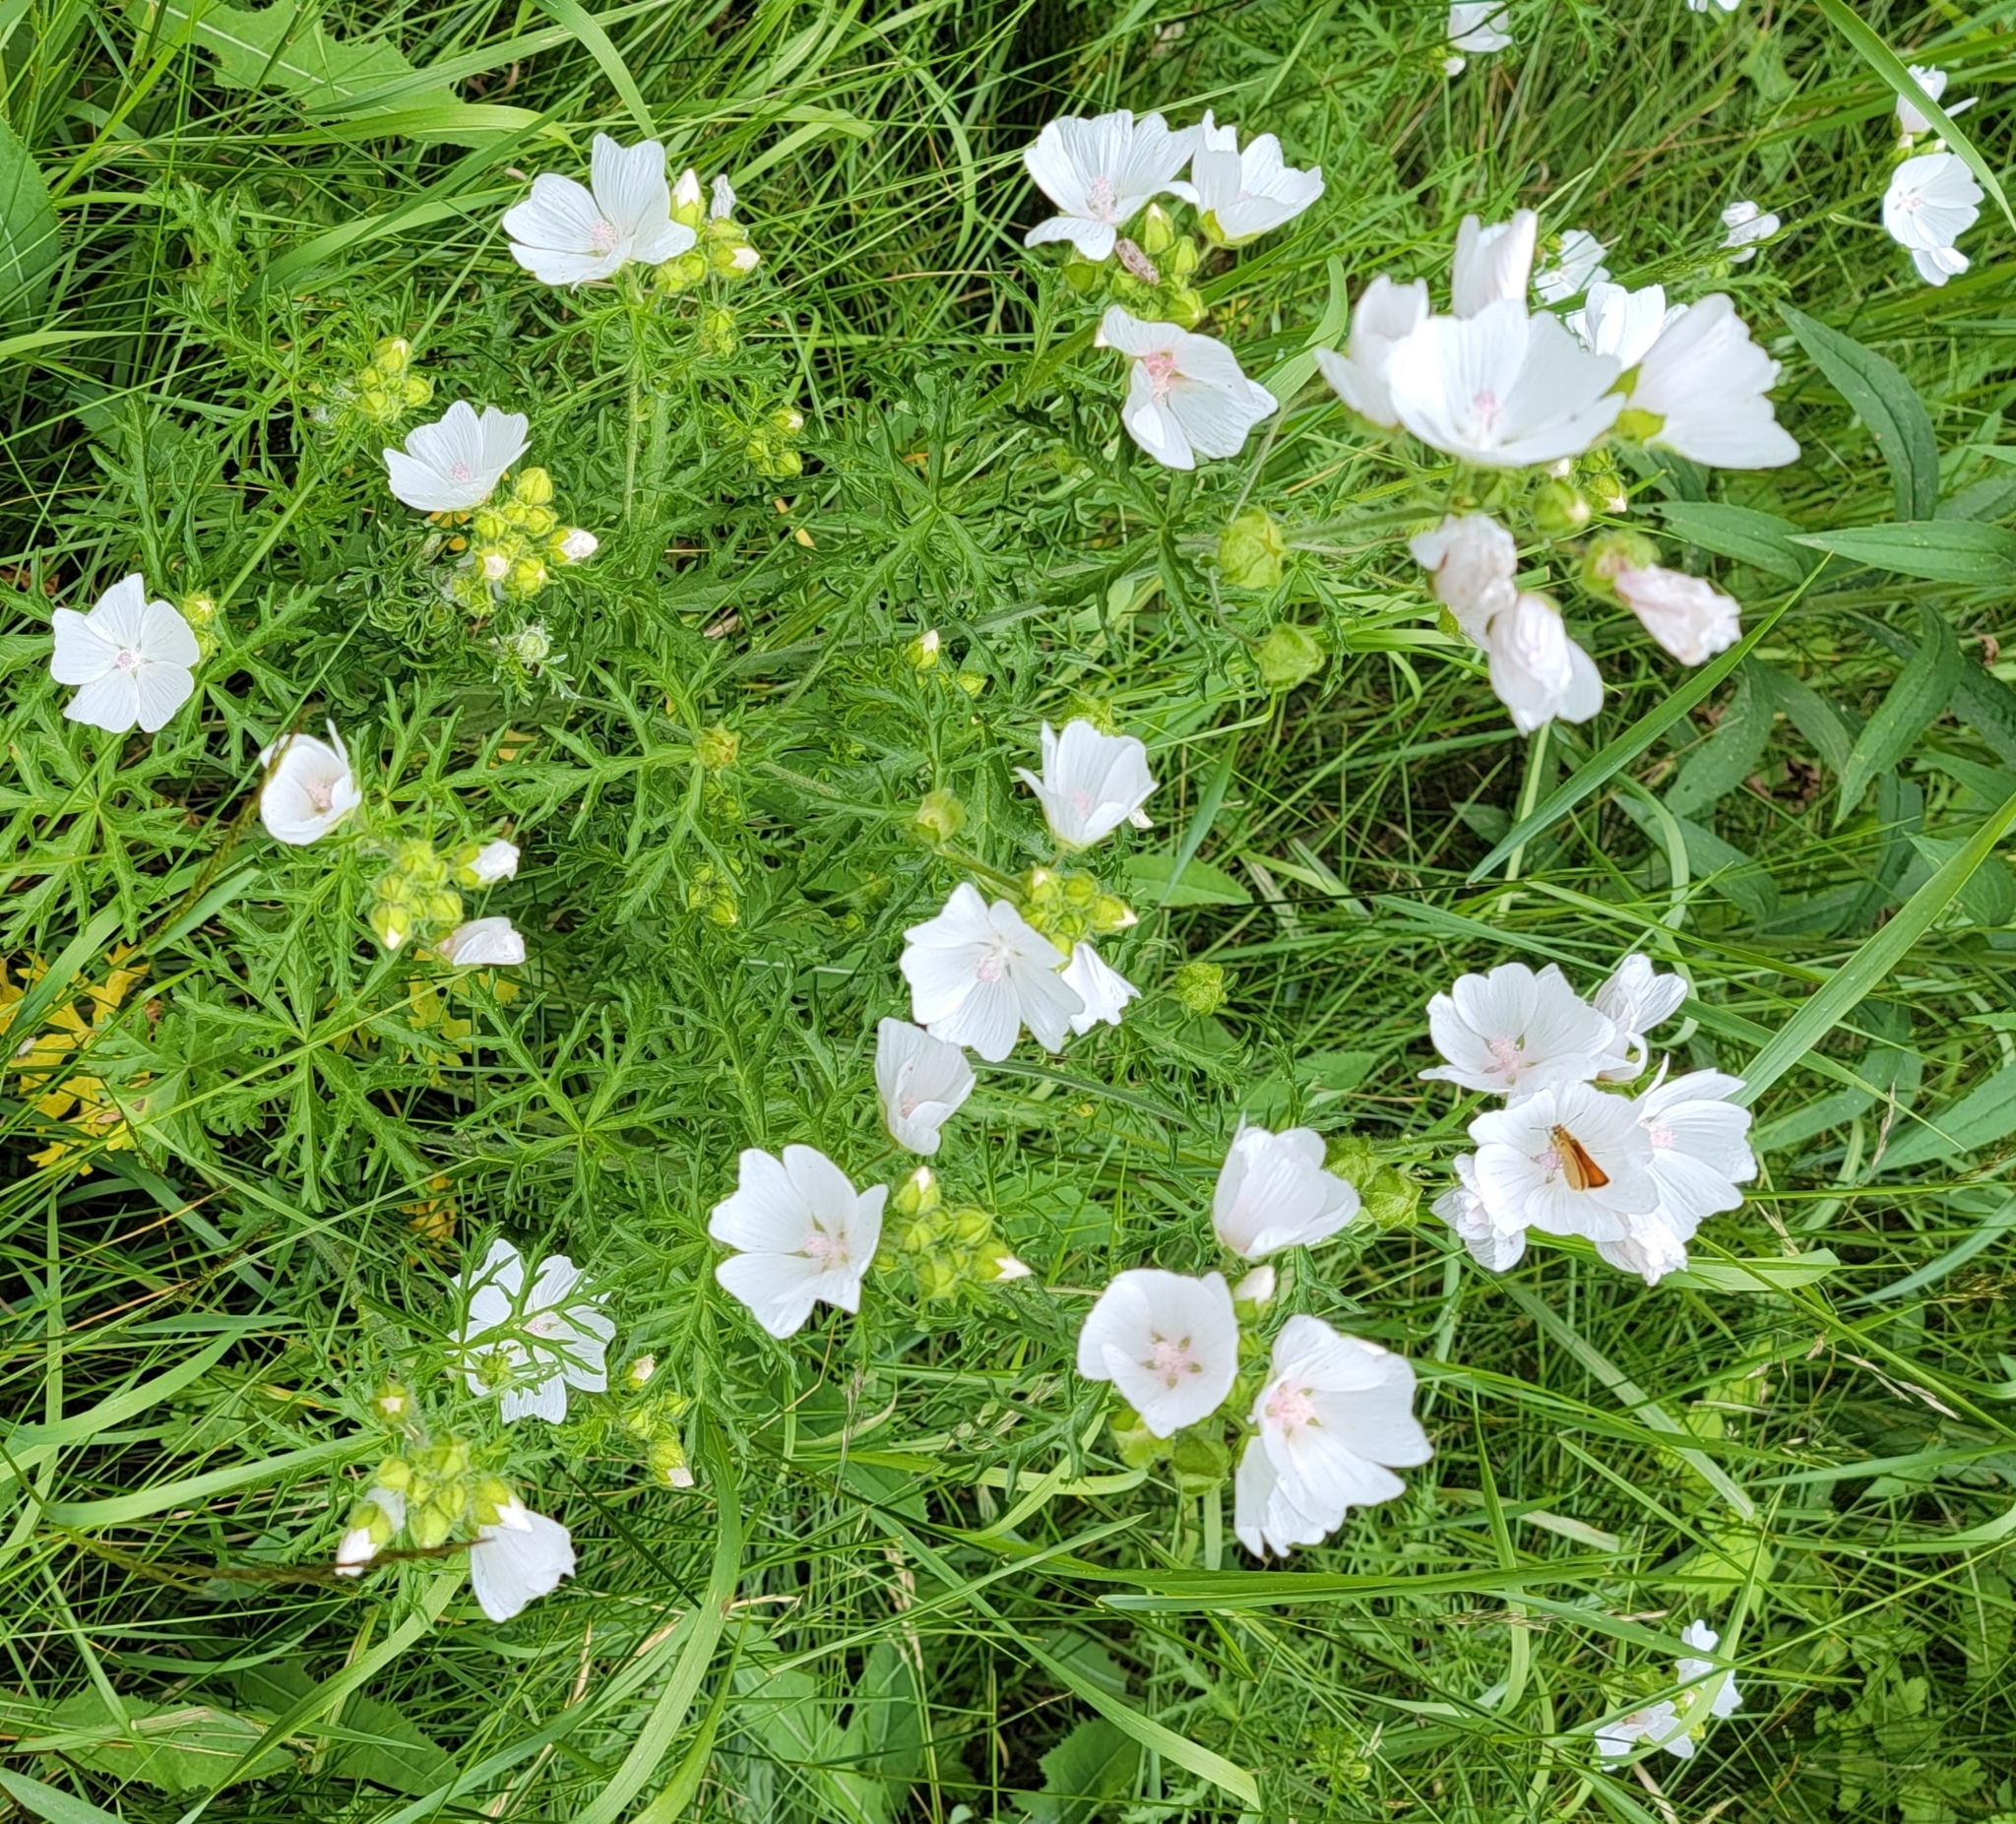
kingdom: Plantae
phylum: Tracheophyta
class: Magnoliopsida
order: Malvales
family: Malvaceae
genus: Malva
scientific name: Malva moschata
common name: Musk mallow
